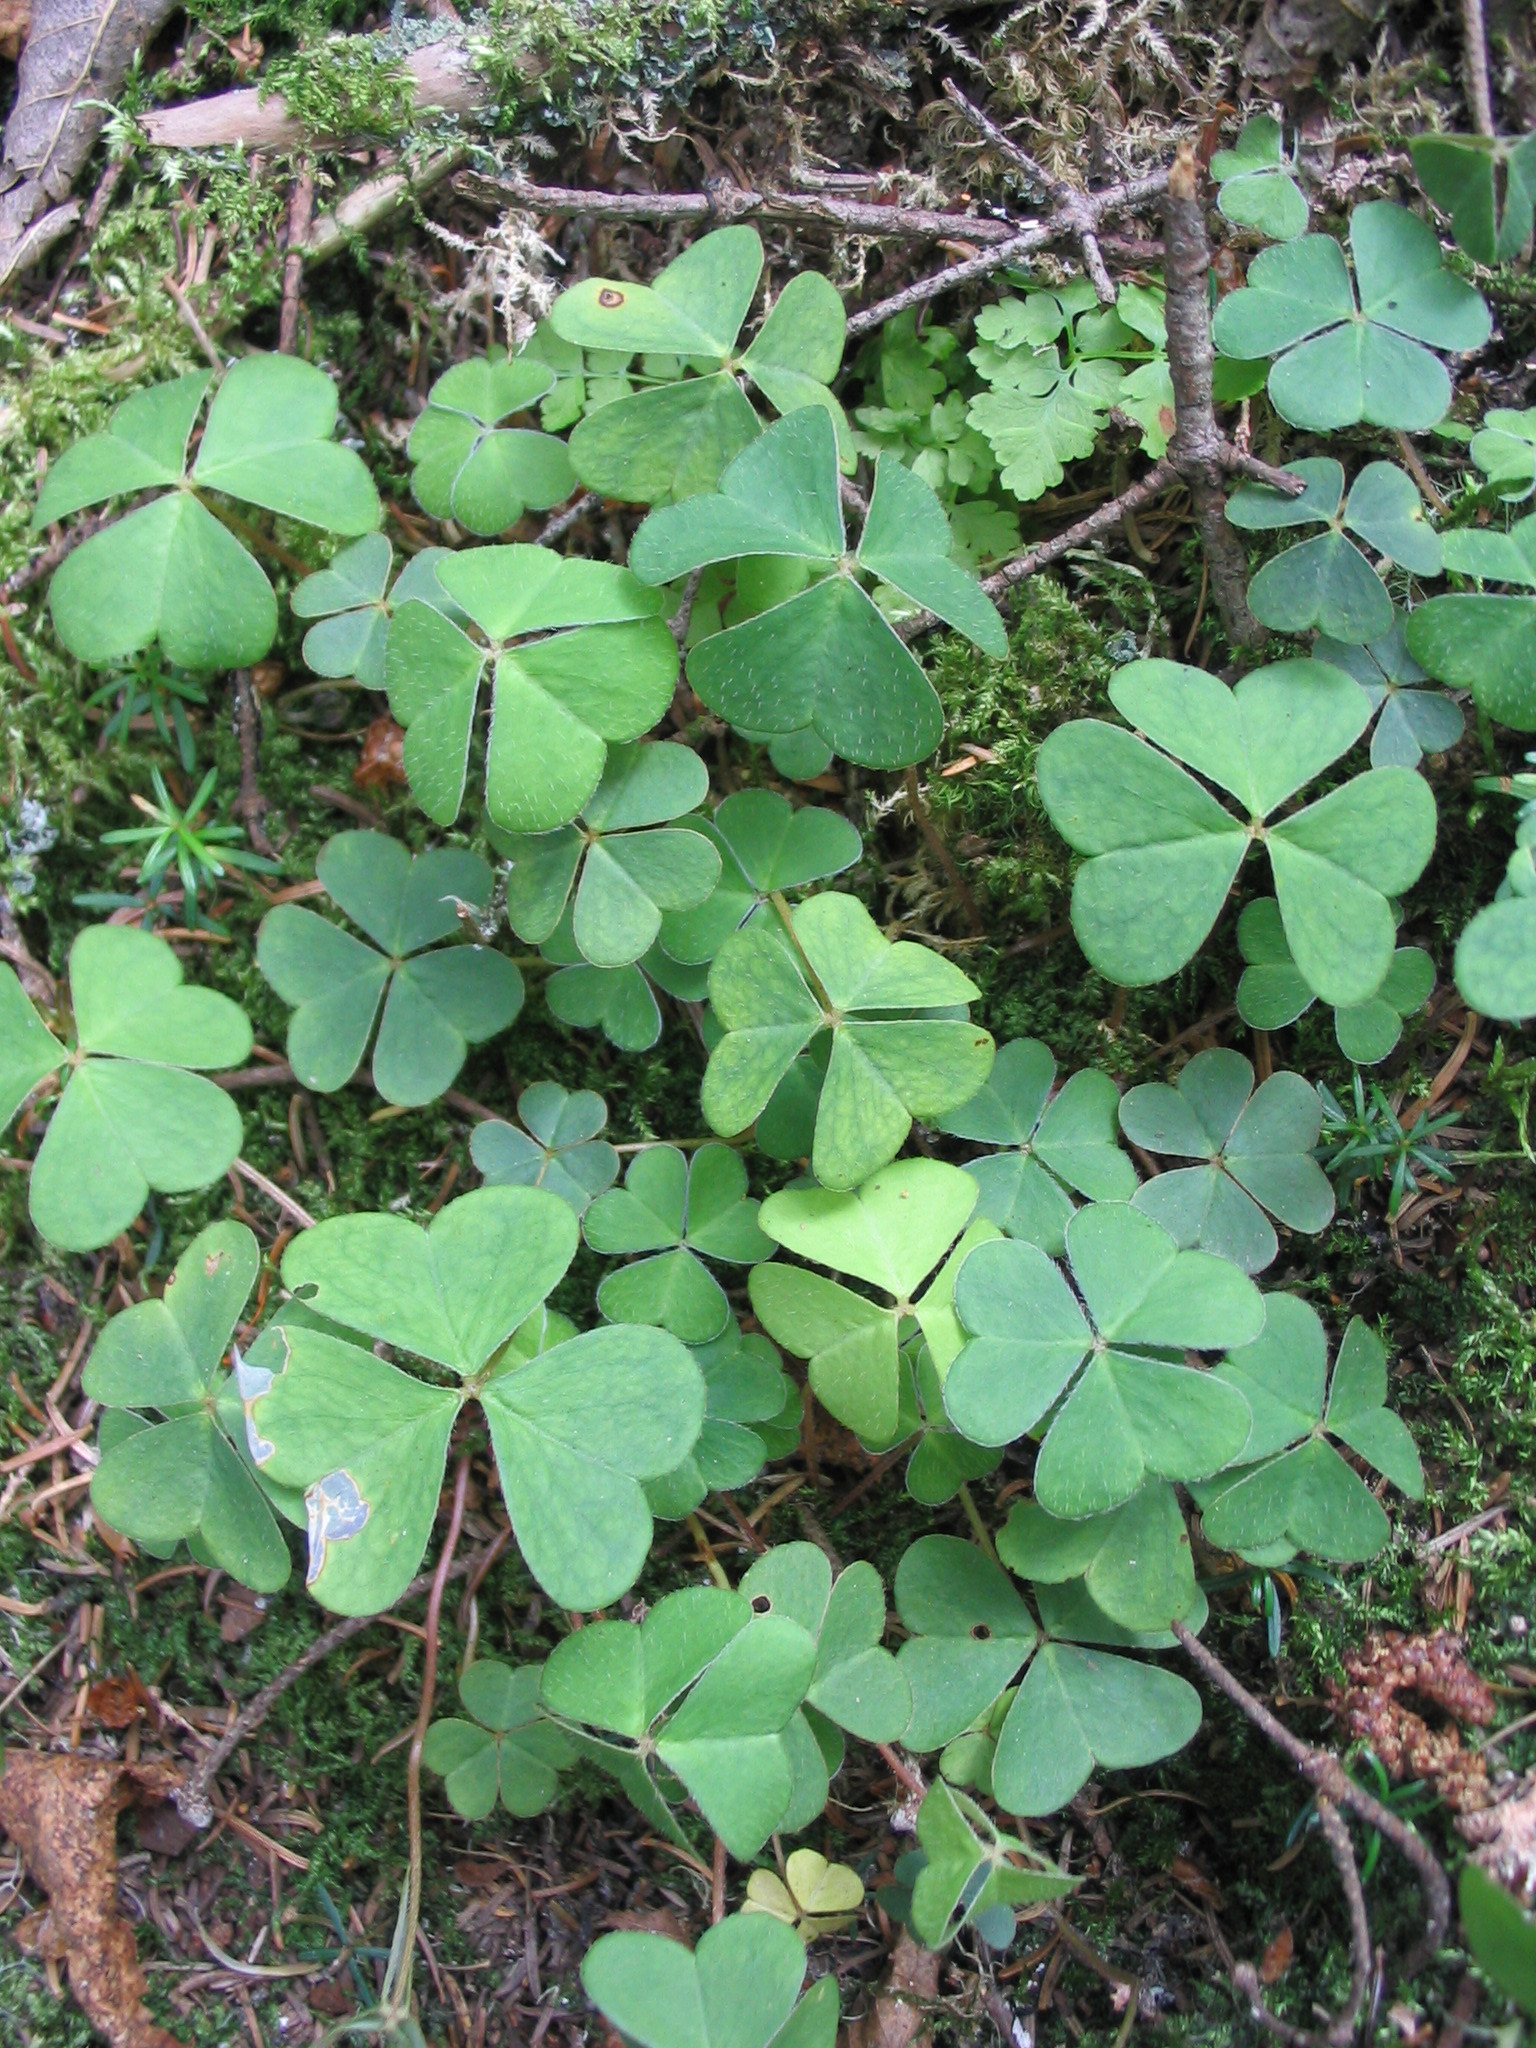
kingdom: Plantae
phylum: Tracheophyta
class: Magnoliopsida
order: Oxalidales
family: Oxalidaceae
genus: Oxalis
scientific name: Oxalis montana
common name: American wood-sorrel
